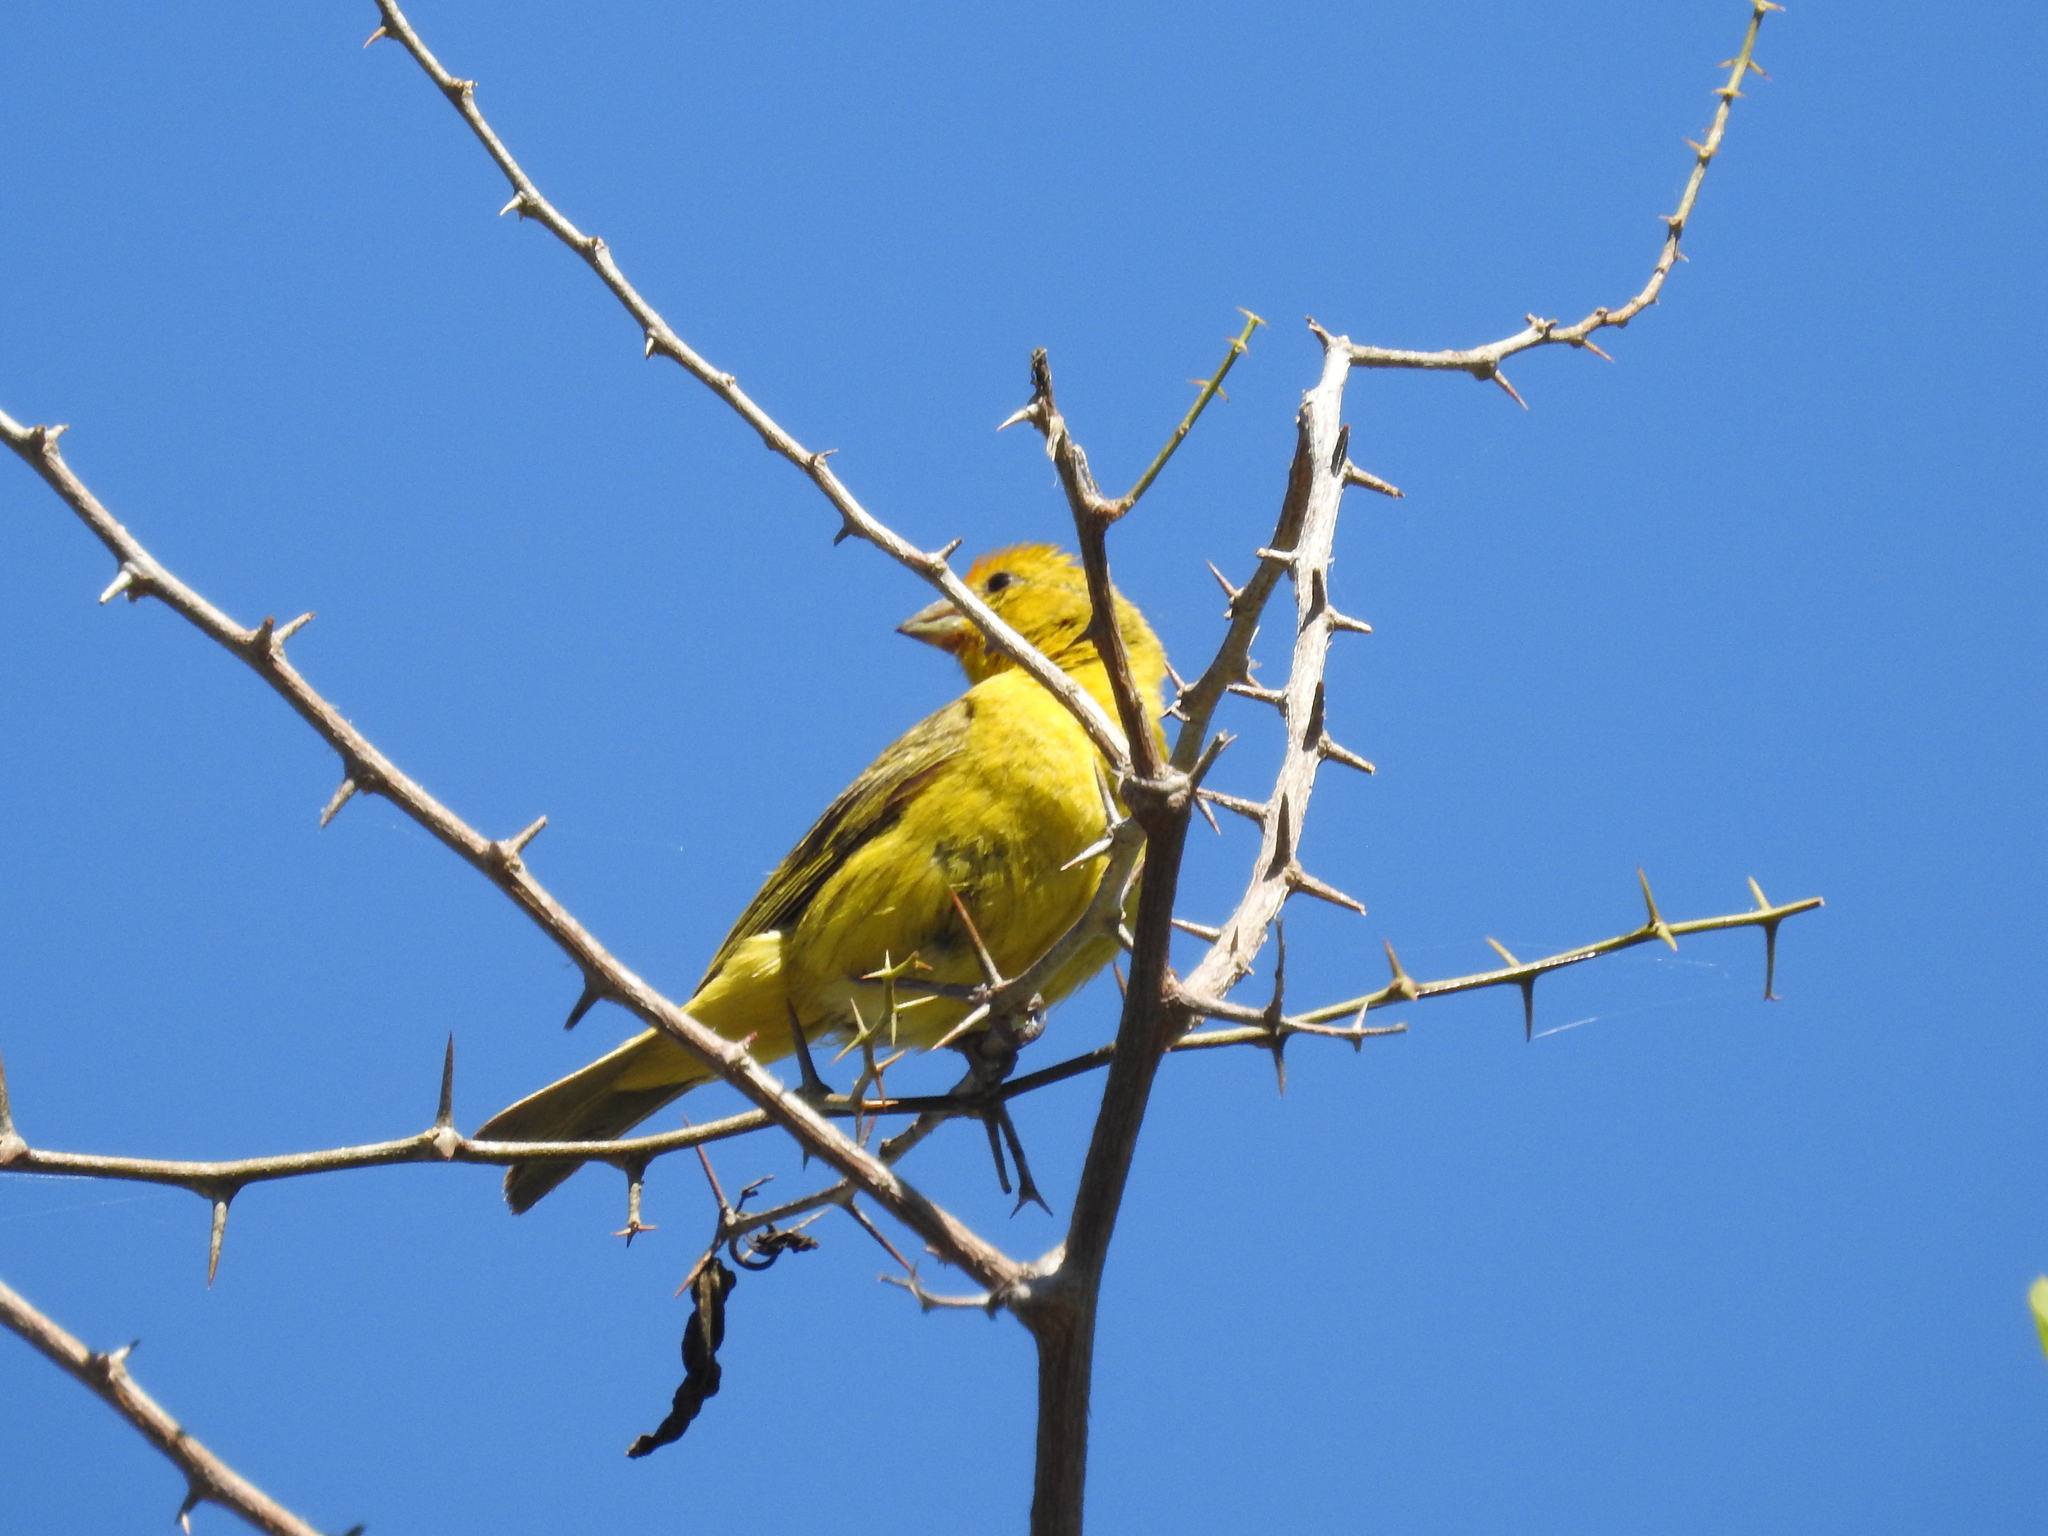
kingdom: Animalia
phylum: Chordata
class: Aves
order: Passeriformes
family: Thraupidae
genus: Sicalis
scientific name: Sicalis flaveola
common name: Saffron finch
